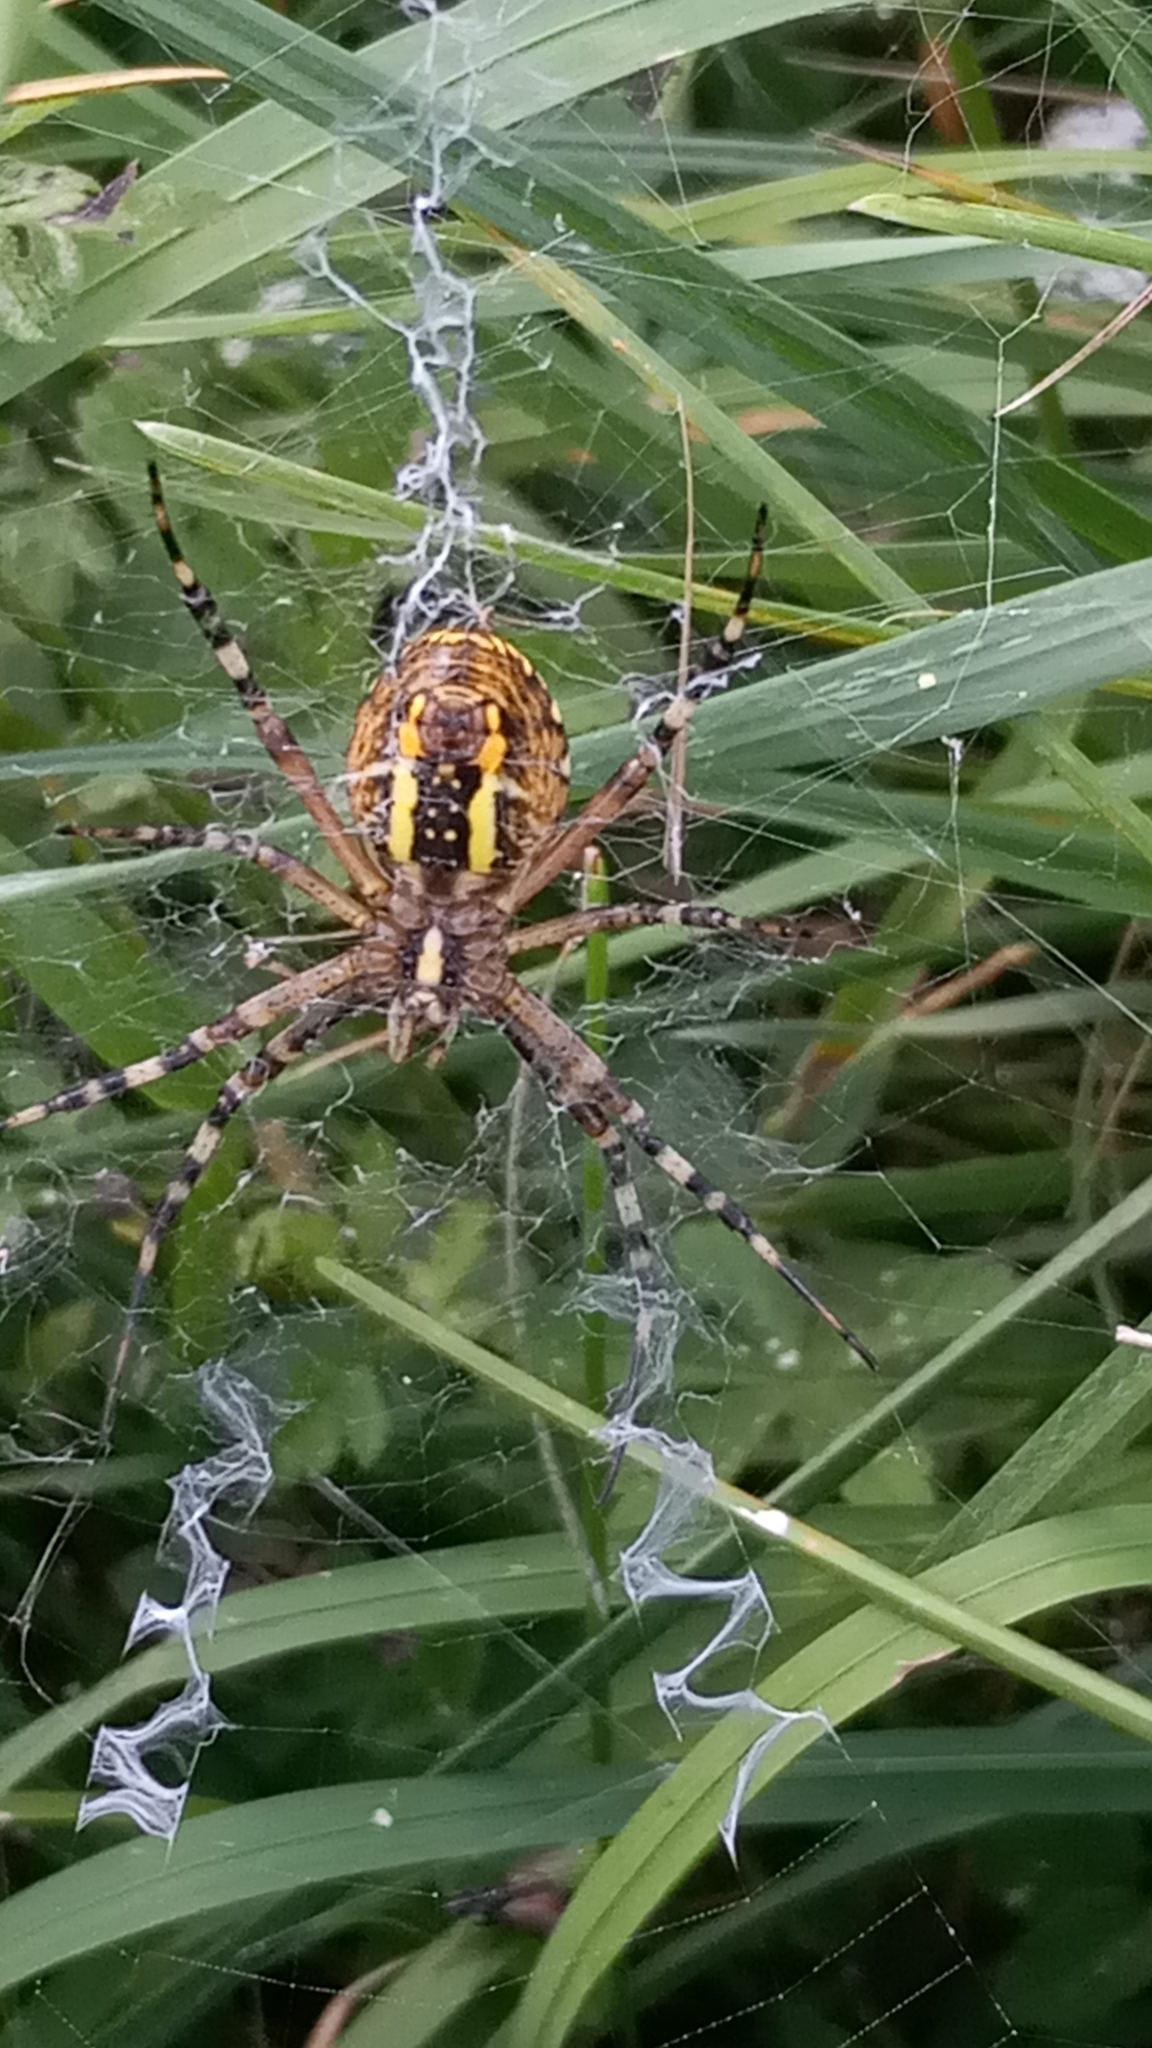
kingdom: Animalia
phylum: Arthropoda
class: Arachnida
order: Araneae
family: Araneidae
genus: Argiope
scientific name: Argiope bruennichi
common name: Wasp spider
